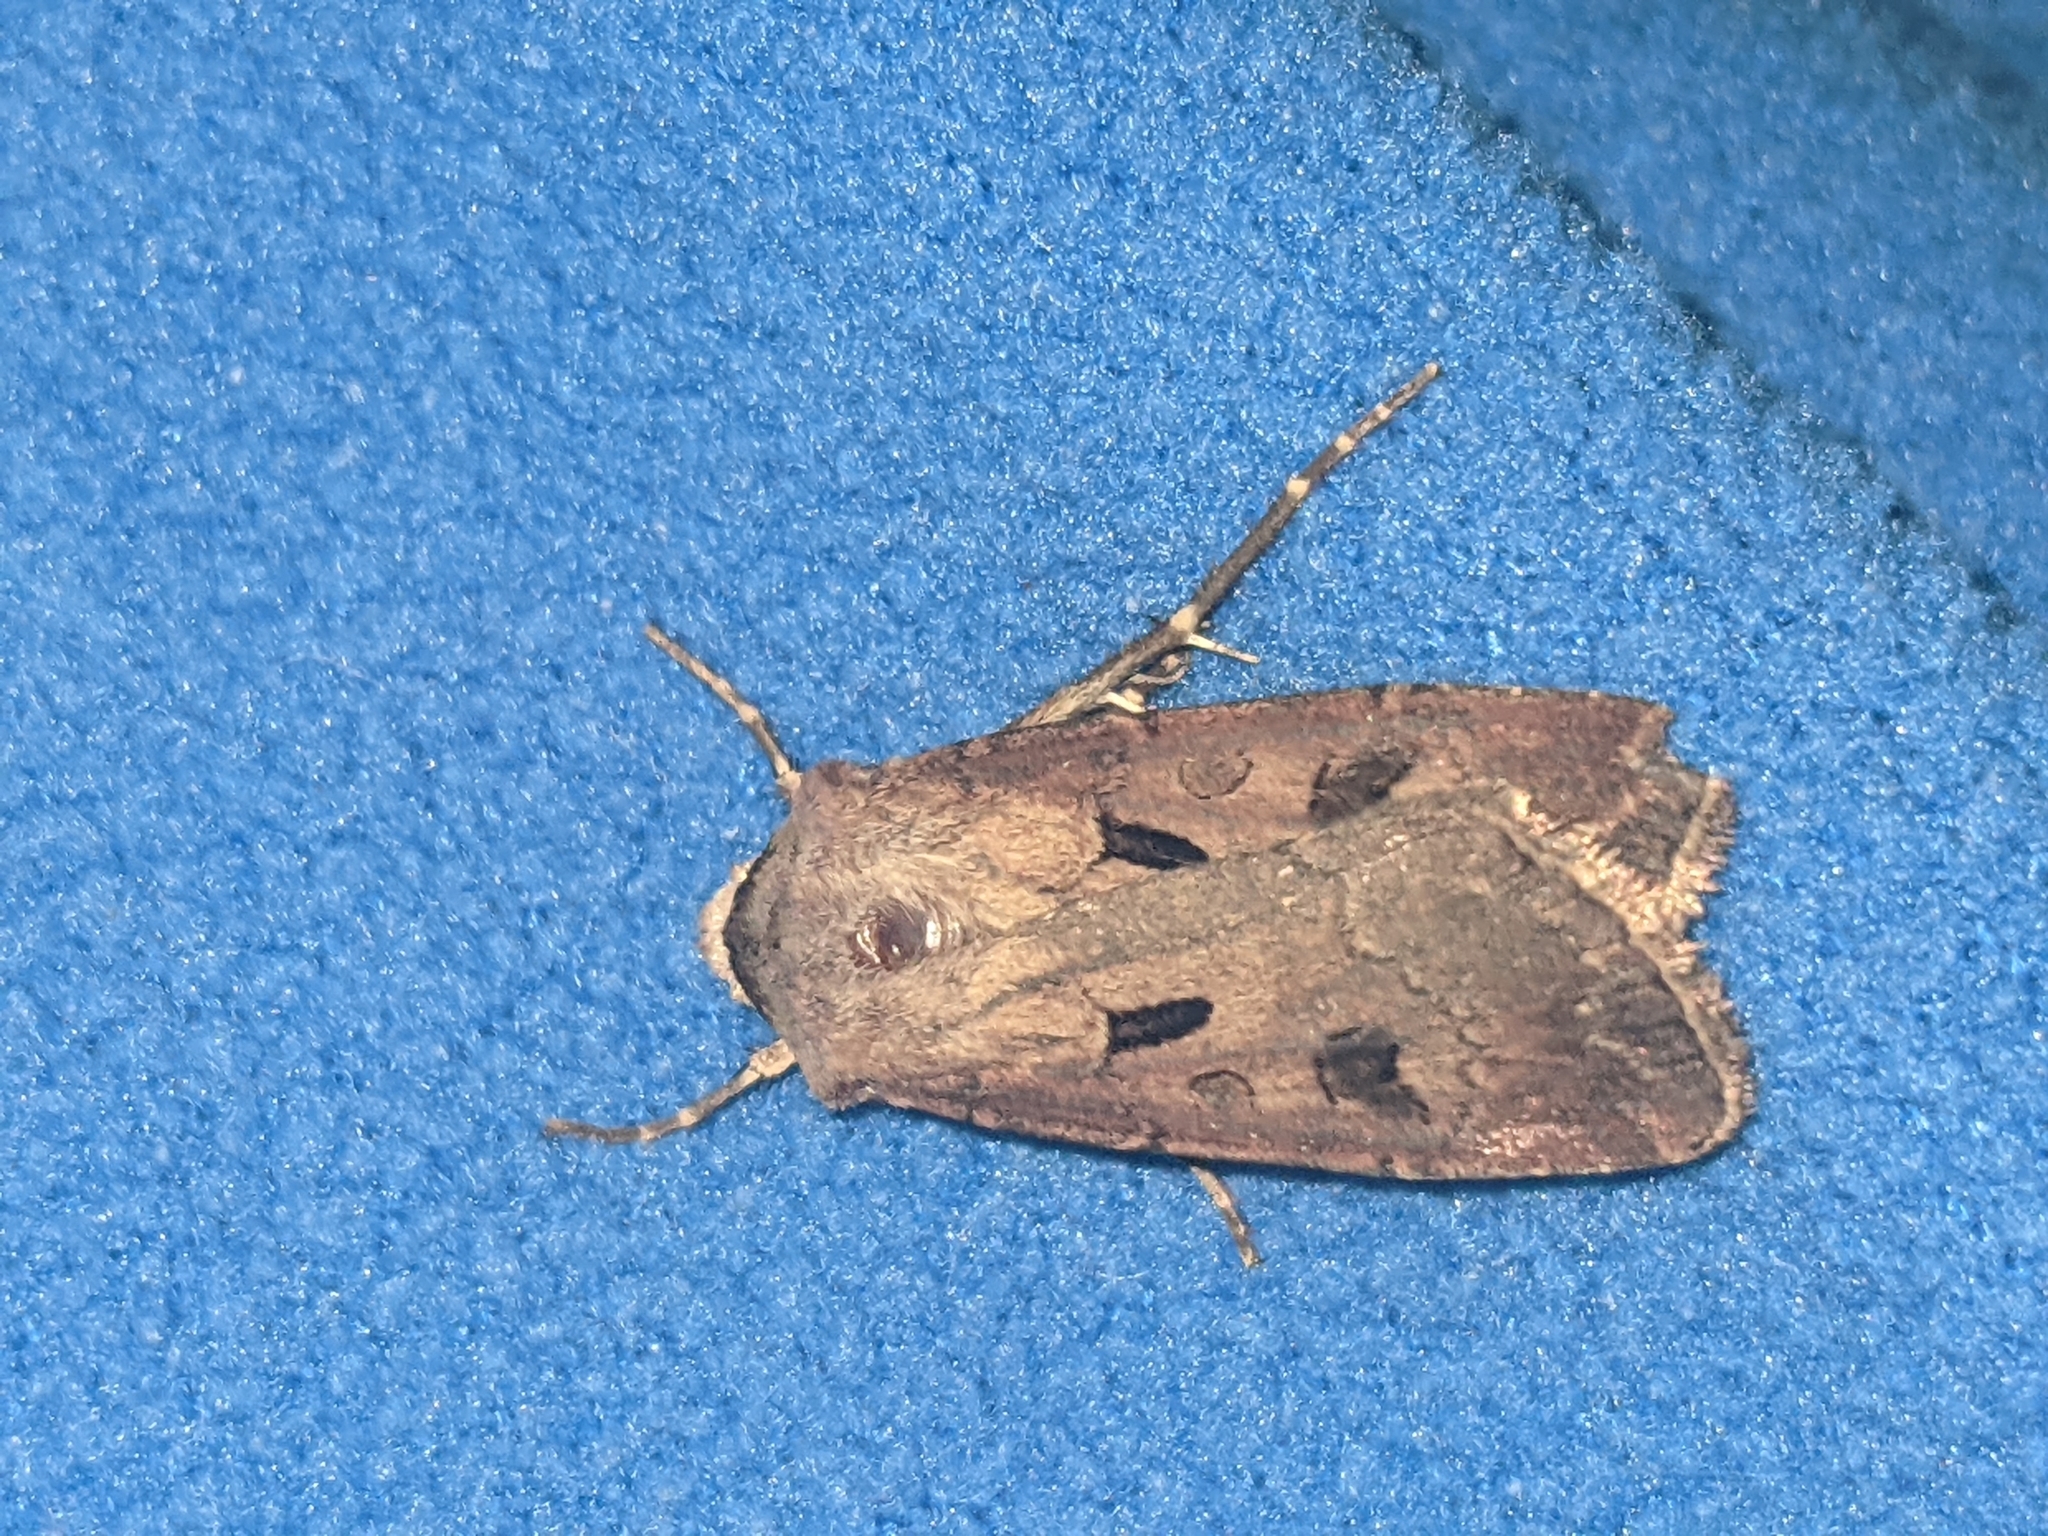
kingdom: Animalia
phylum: Arthropoda
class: Insecta
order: Lepidoptera
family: Noctuidae
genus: Agrotis
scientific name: Agrotis exclamationis
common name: Heart and dart
